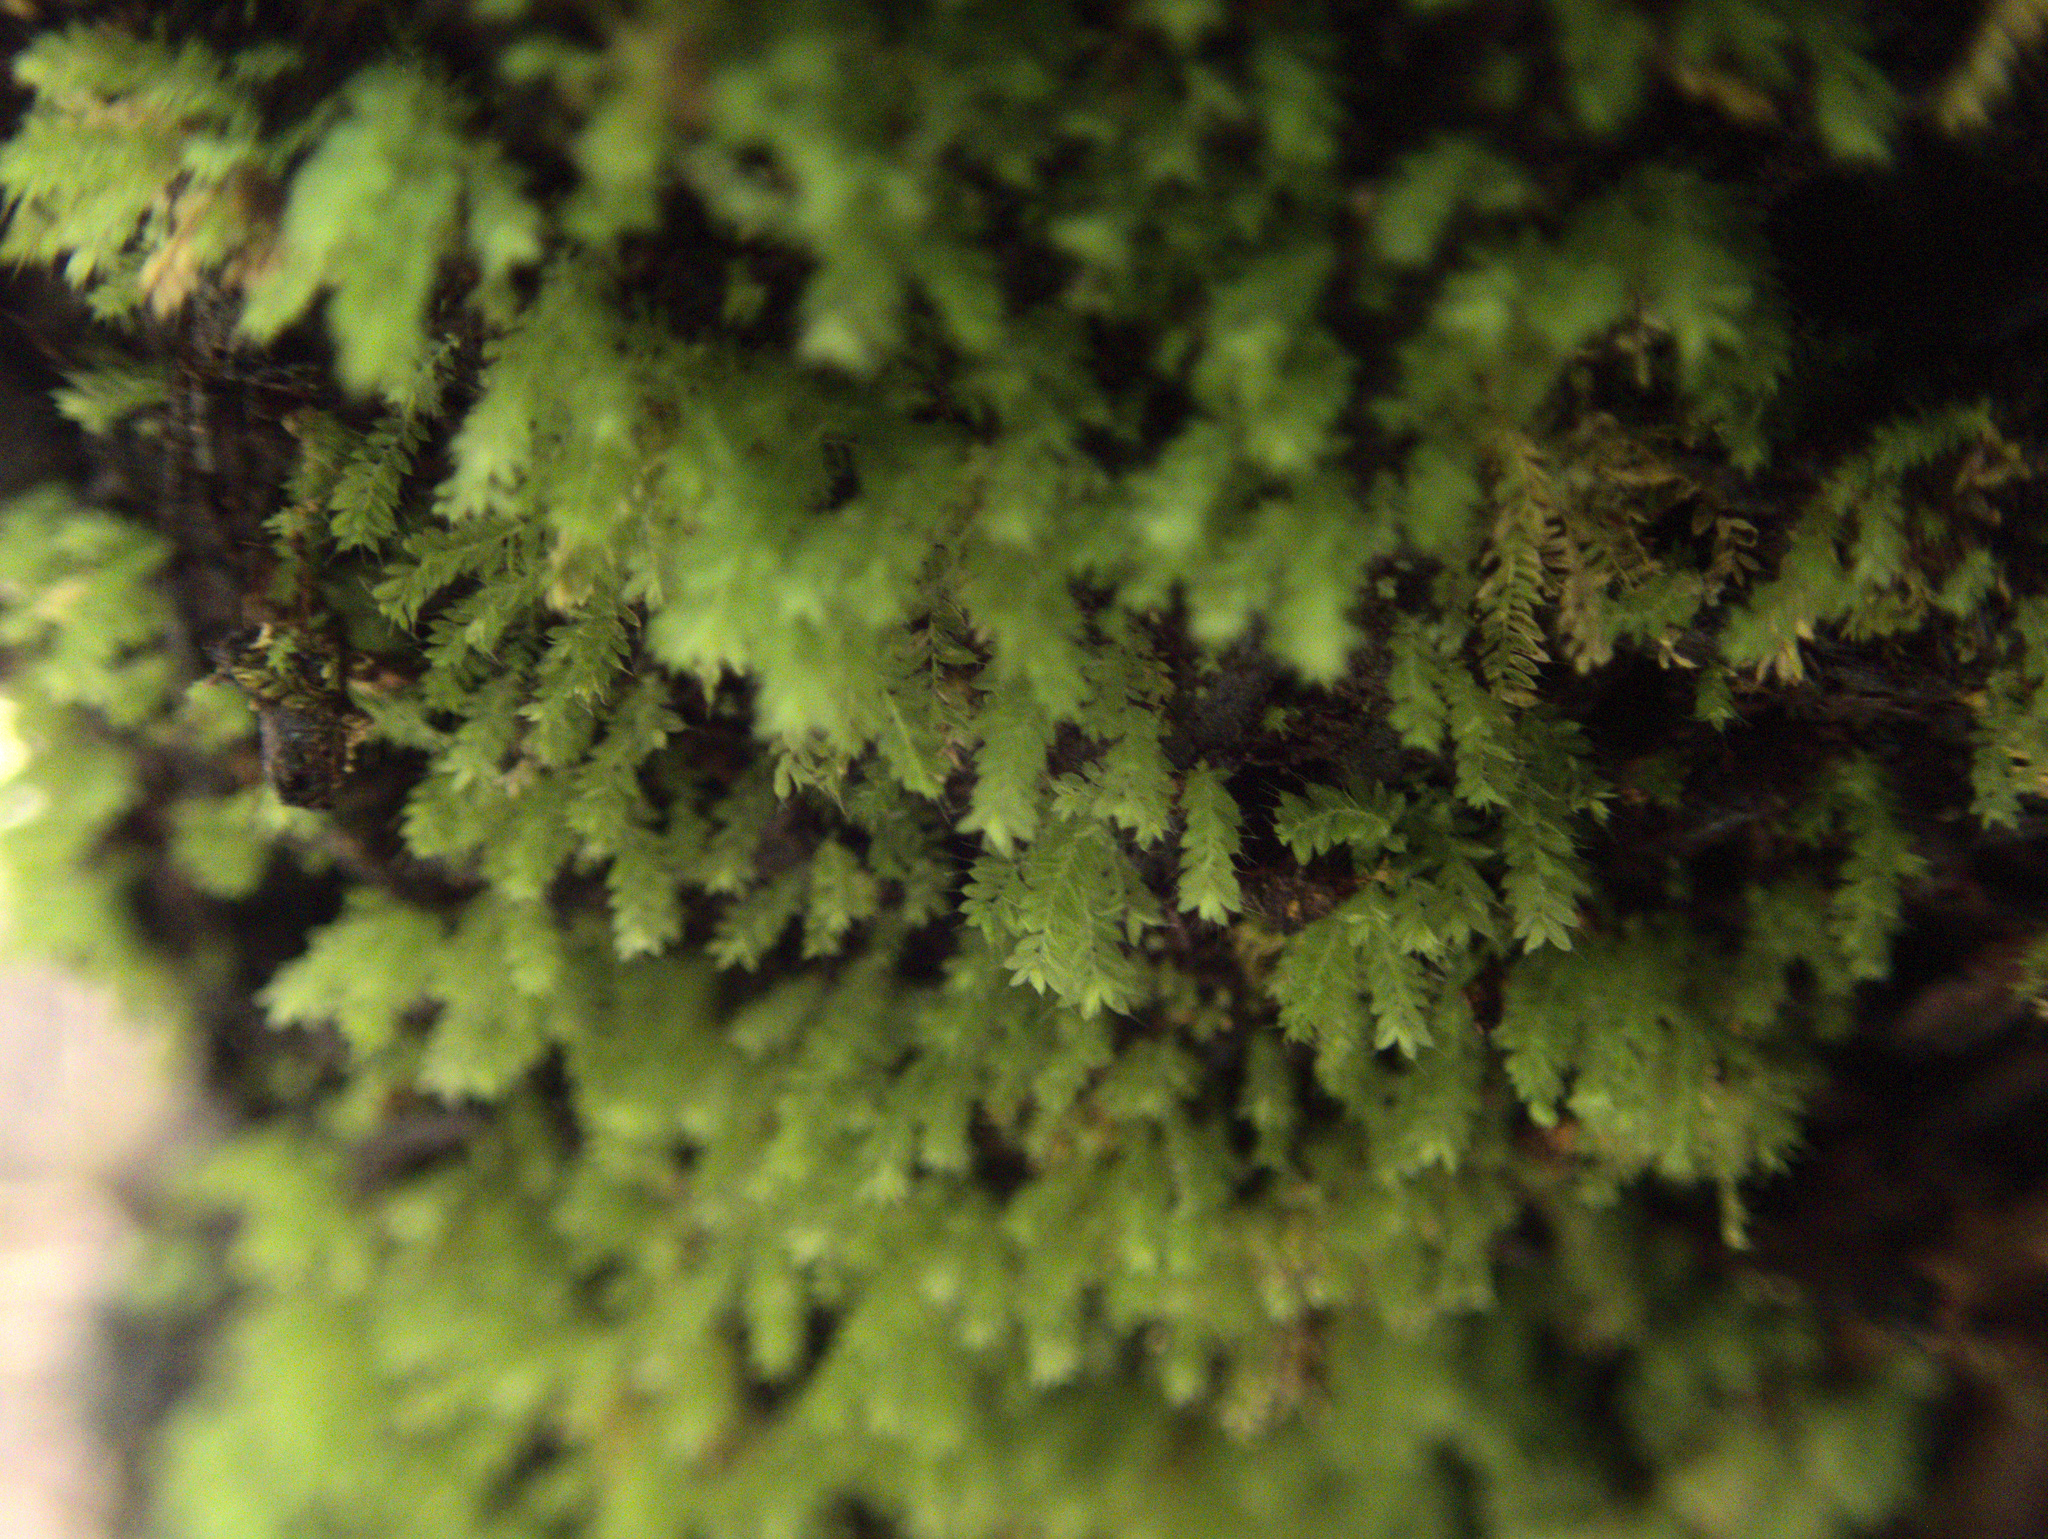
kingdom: Plantae
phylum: Bryophyta
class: Bryopsida
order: Orthodontiales
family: Orthodontiaceae
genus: Hymenodon
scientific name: Hymenodon pilifer
